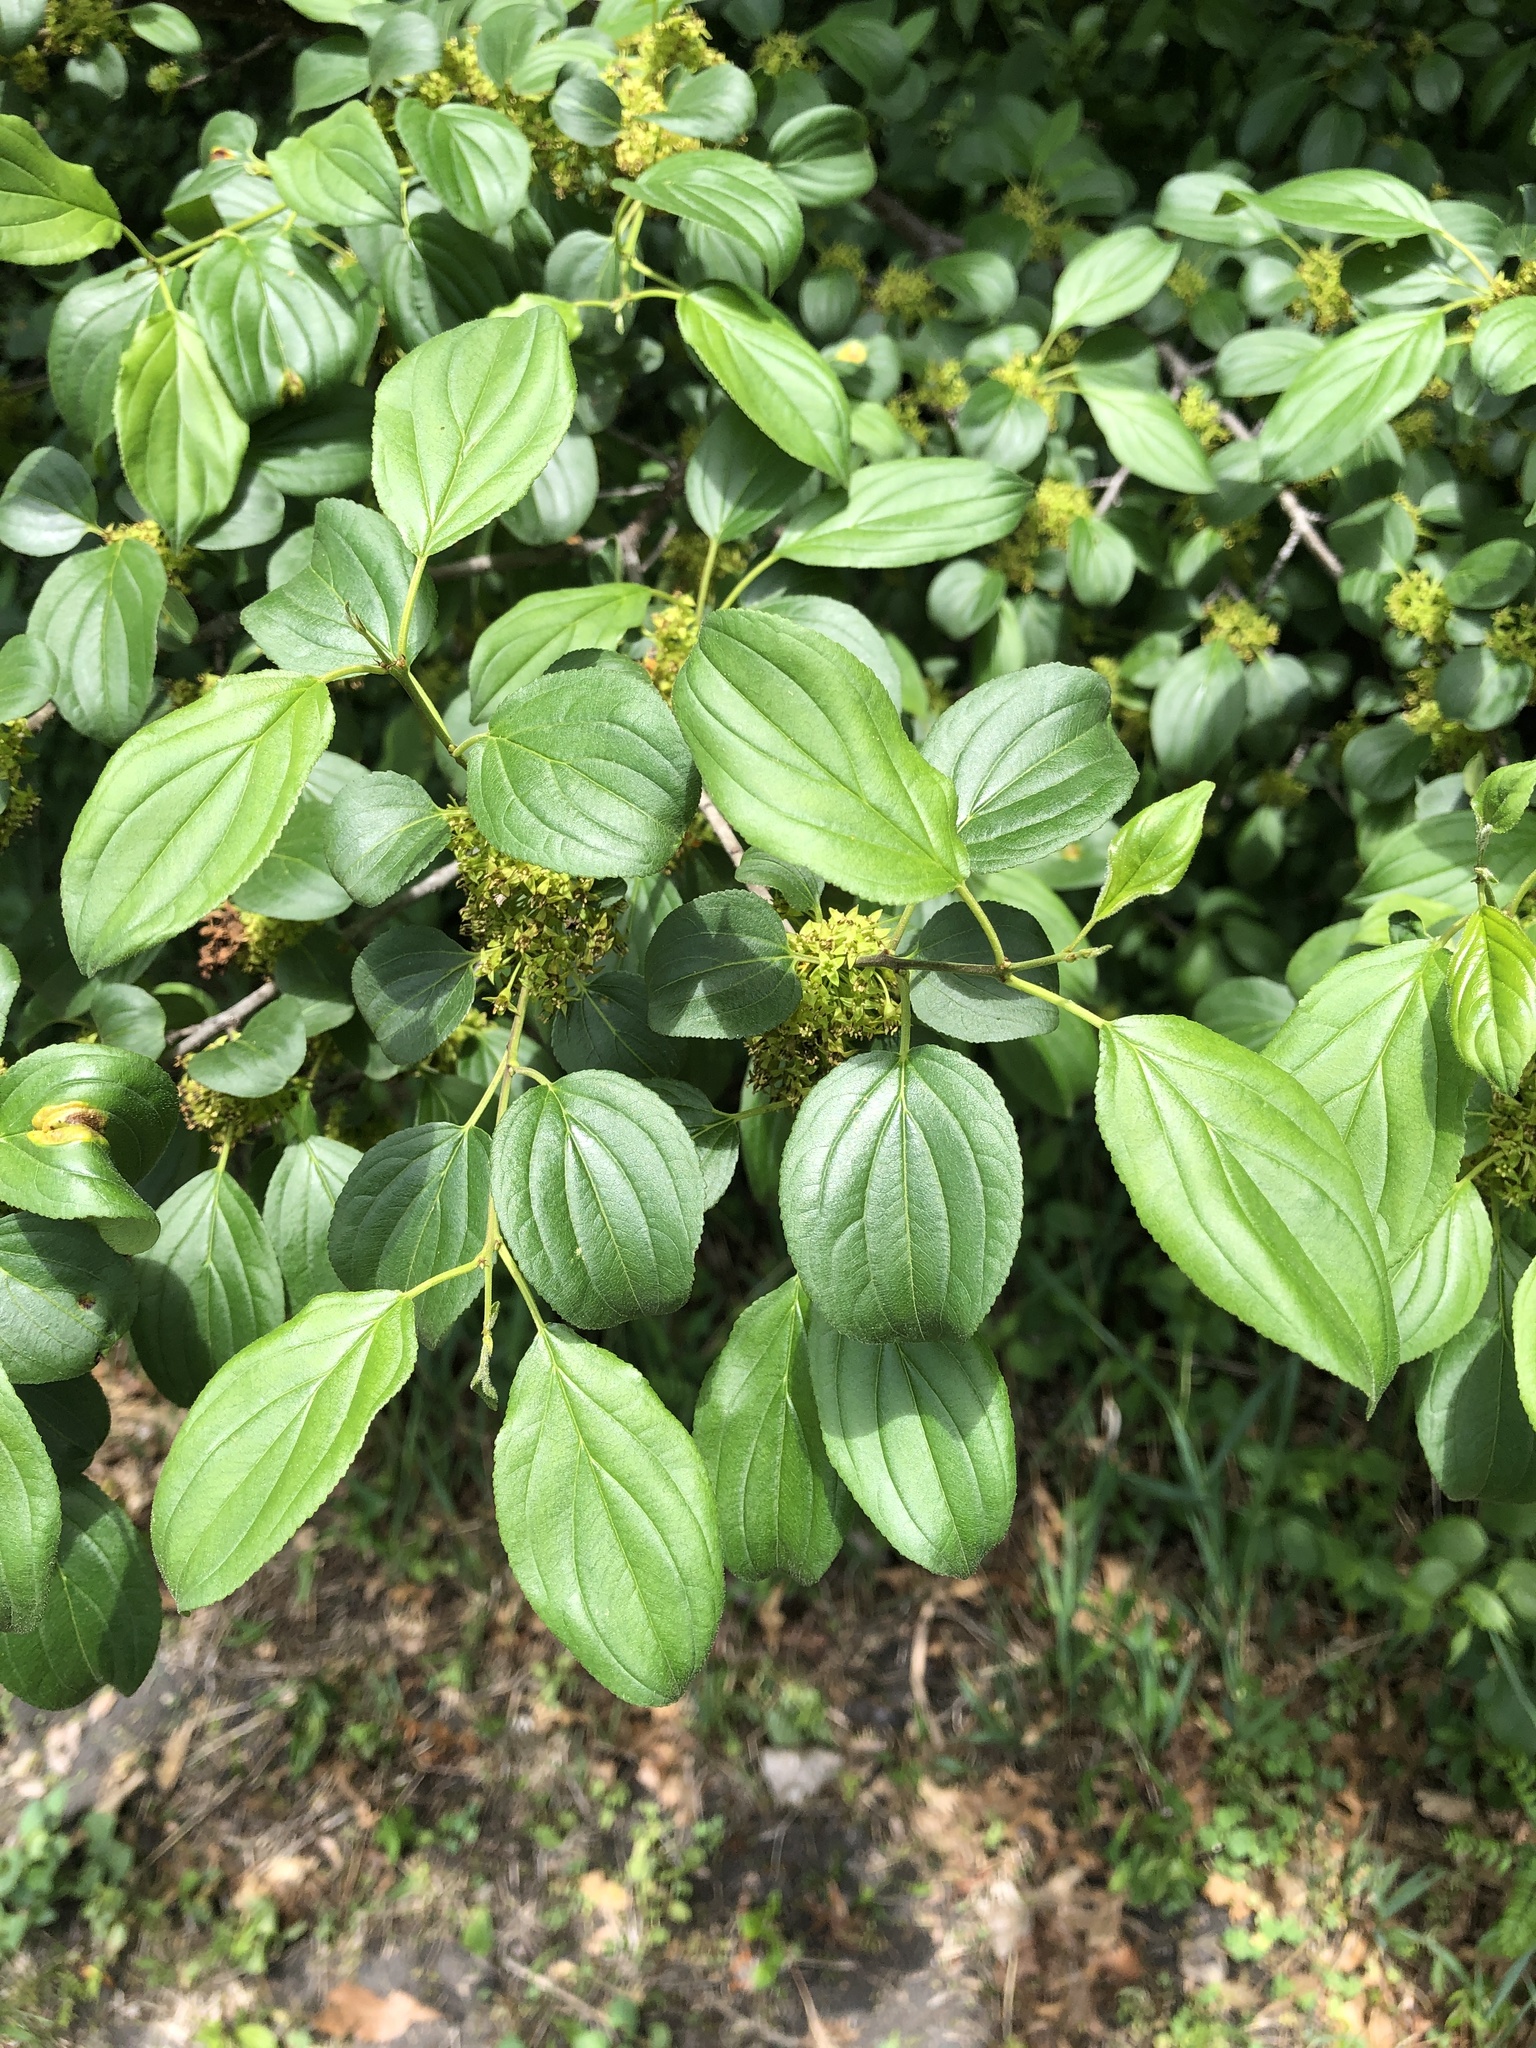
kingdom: Plantae
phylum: Tracheophyta
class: Magnoliopsida
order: Rosales
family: Rhamnaceae
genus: Rhamnus
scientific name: Rhamnus cathartica
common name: Common buckthorn
